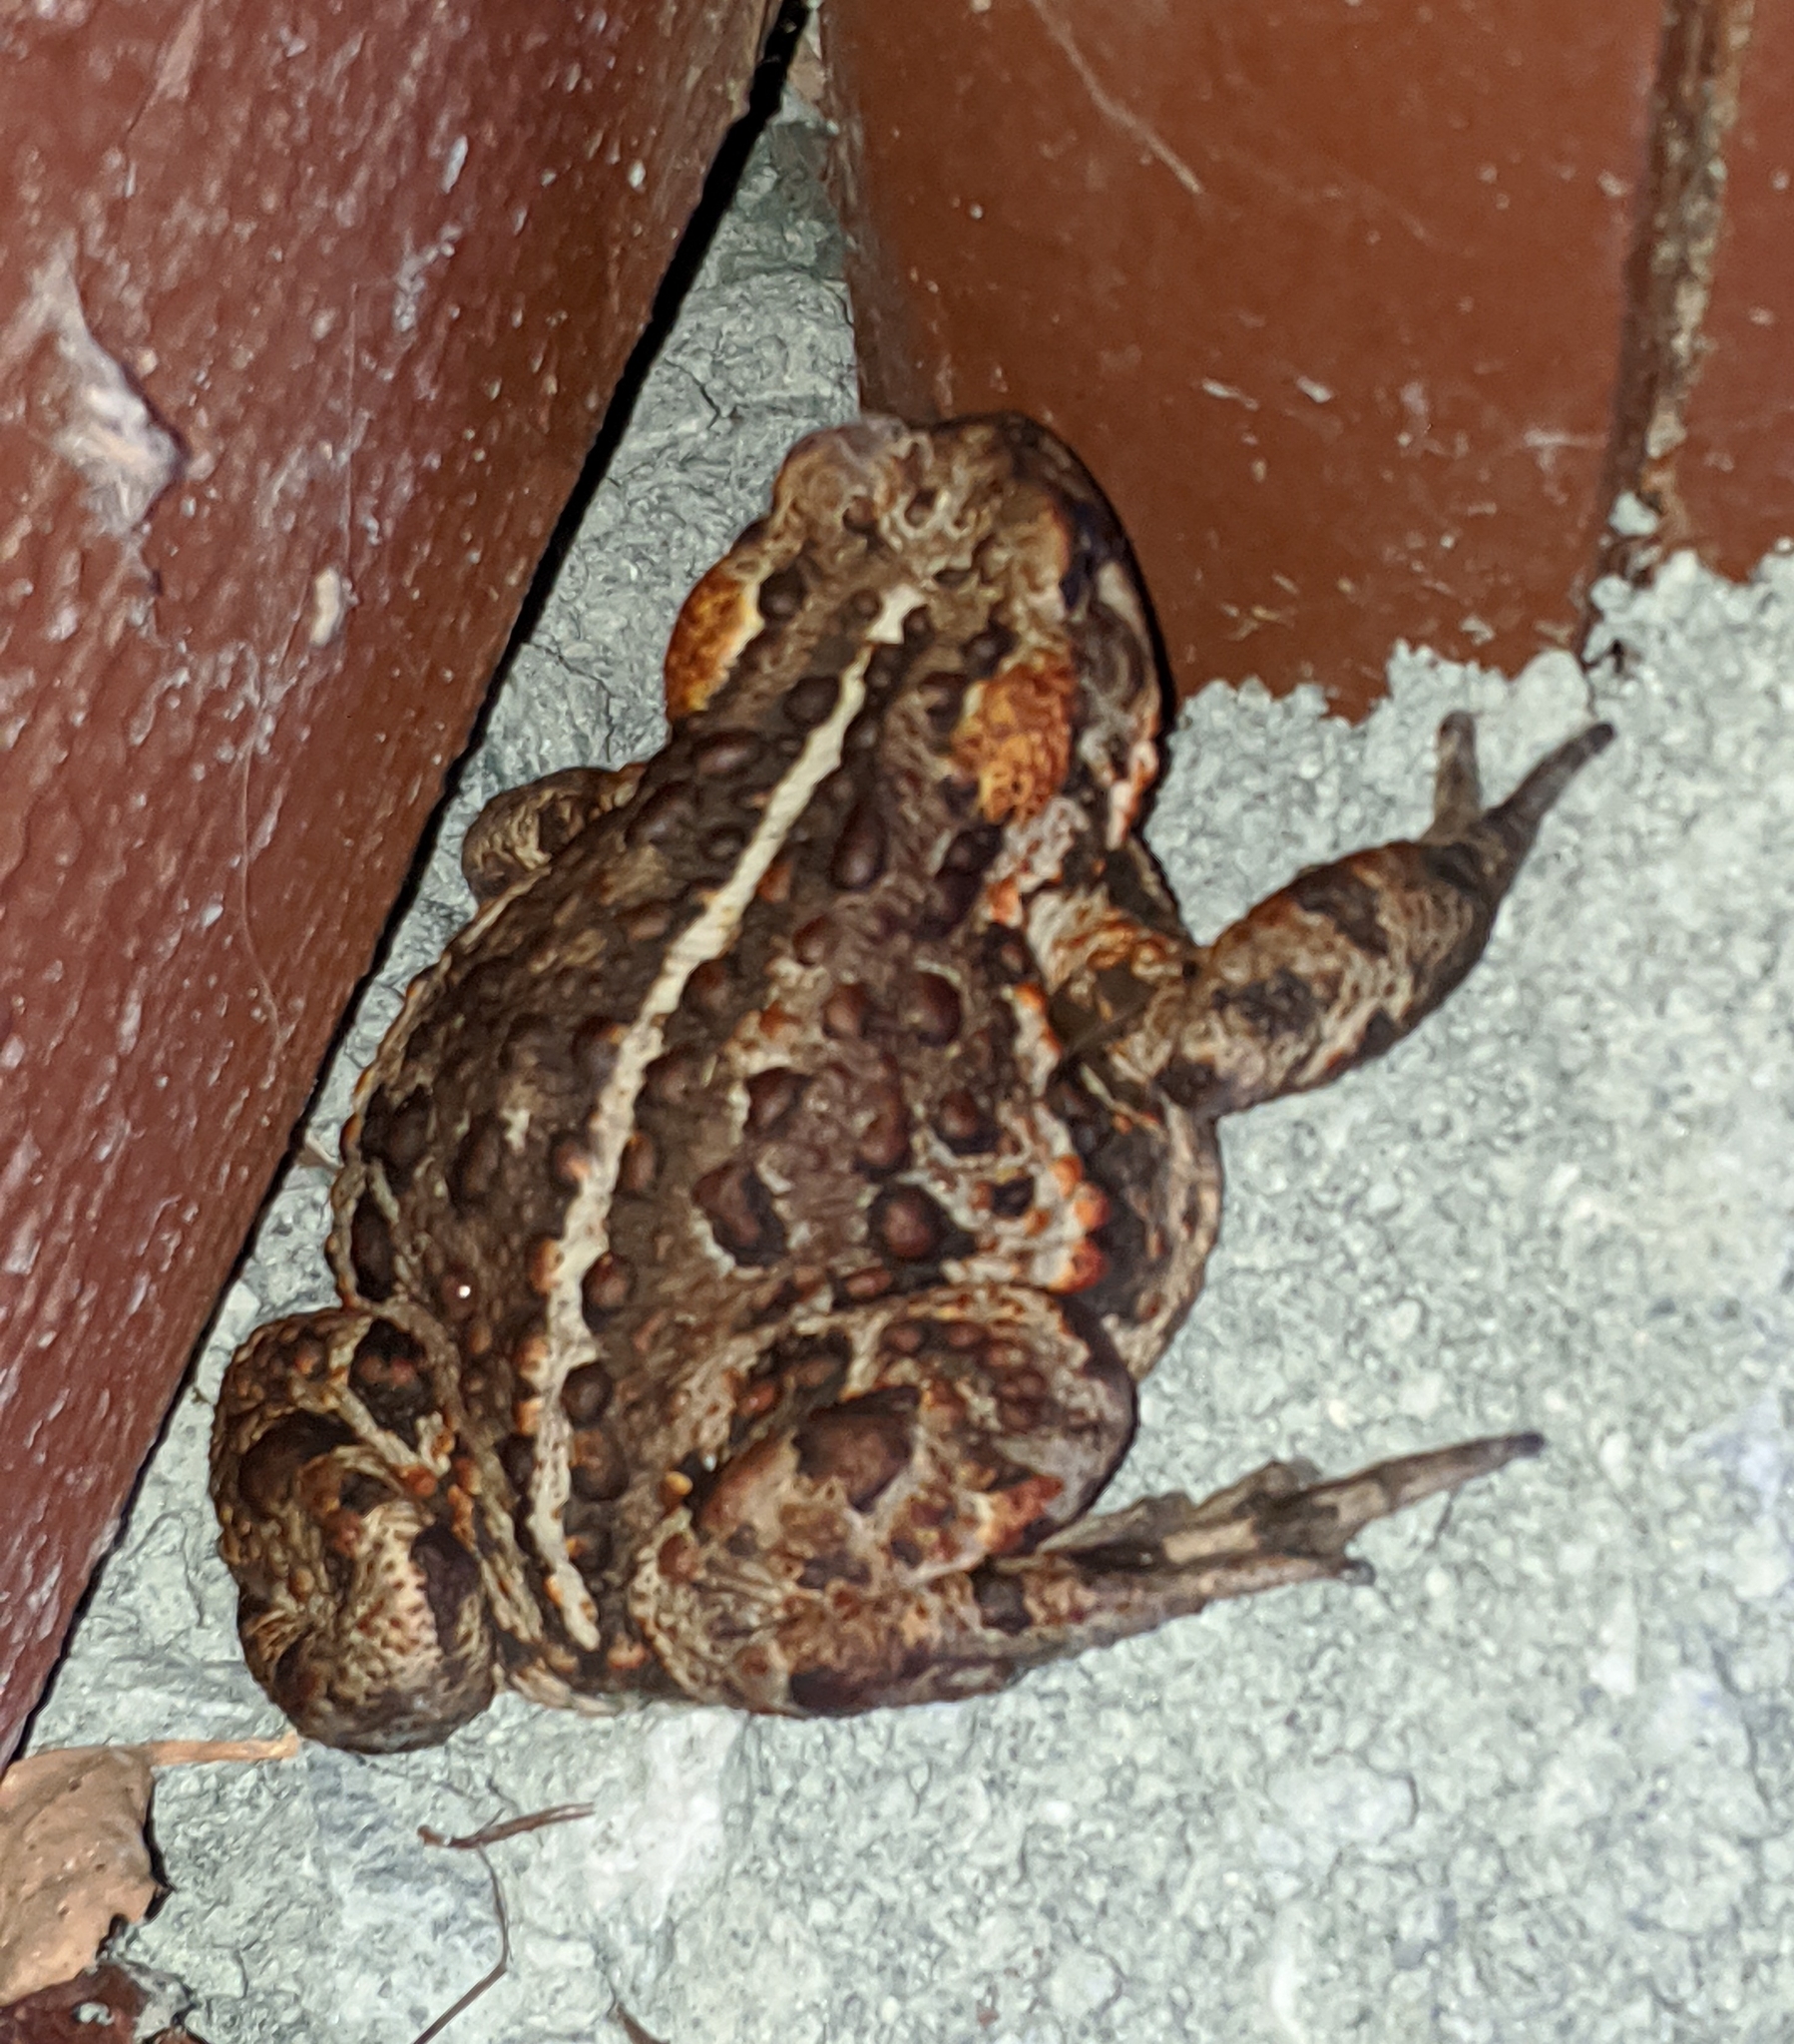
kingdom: Animalia
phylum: Chordata
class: Amphibia
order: Anura
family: Bufonidae
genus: Anaxyrus
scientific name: Anaxyrus boreas
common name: Western toad
